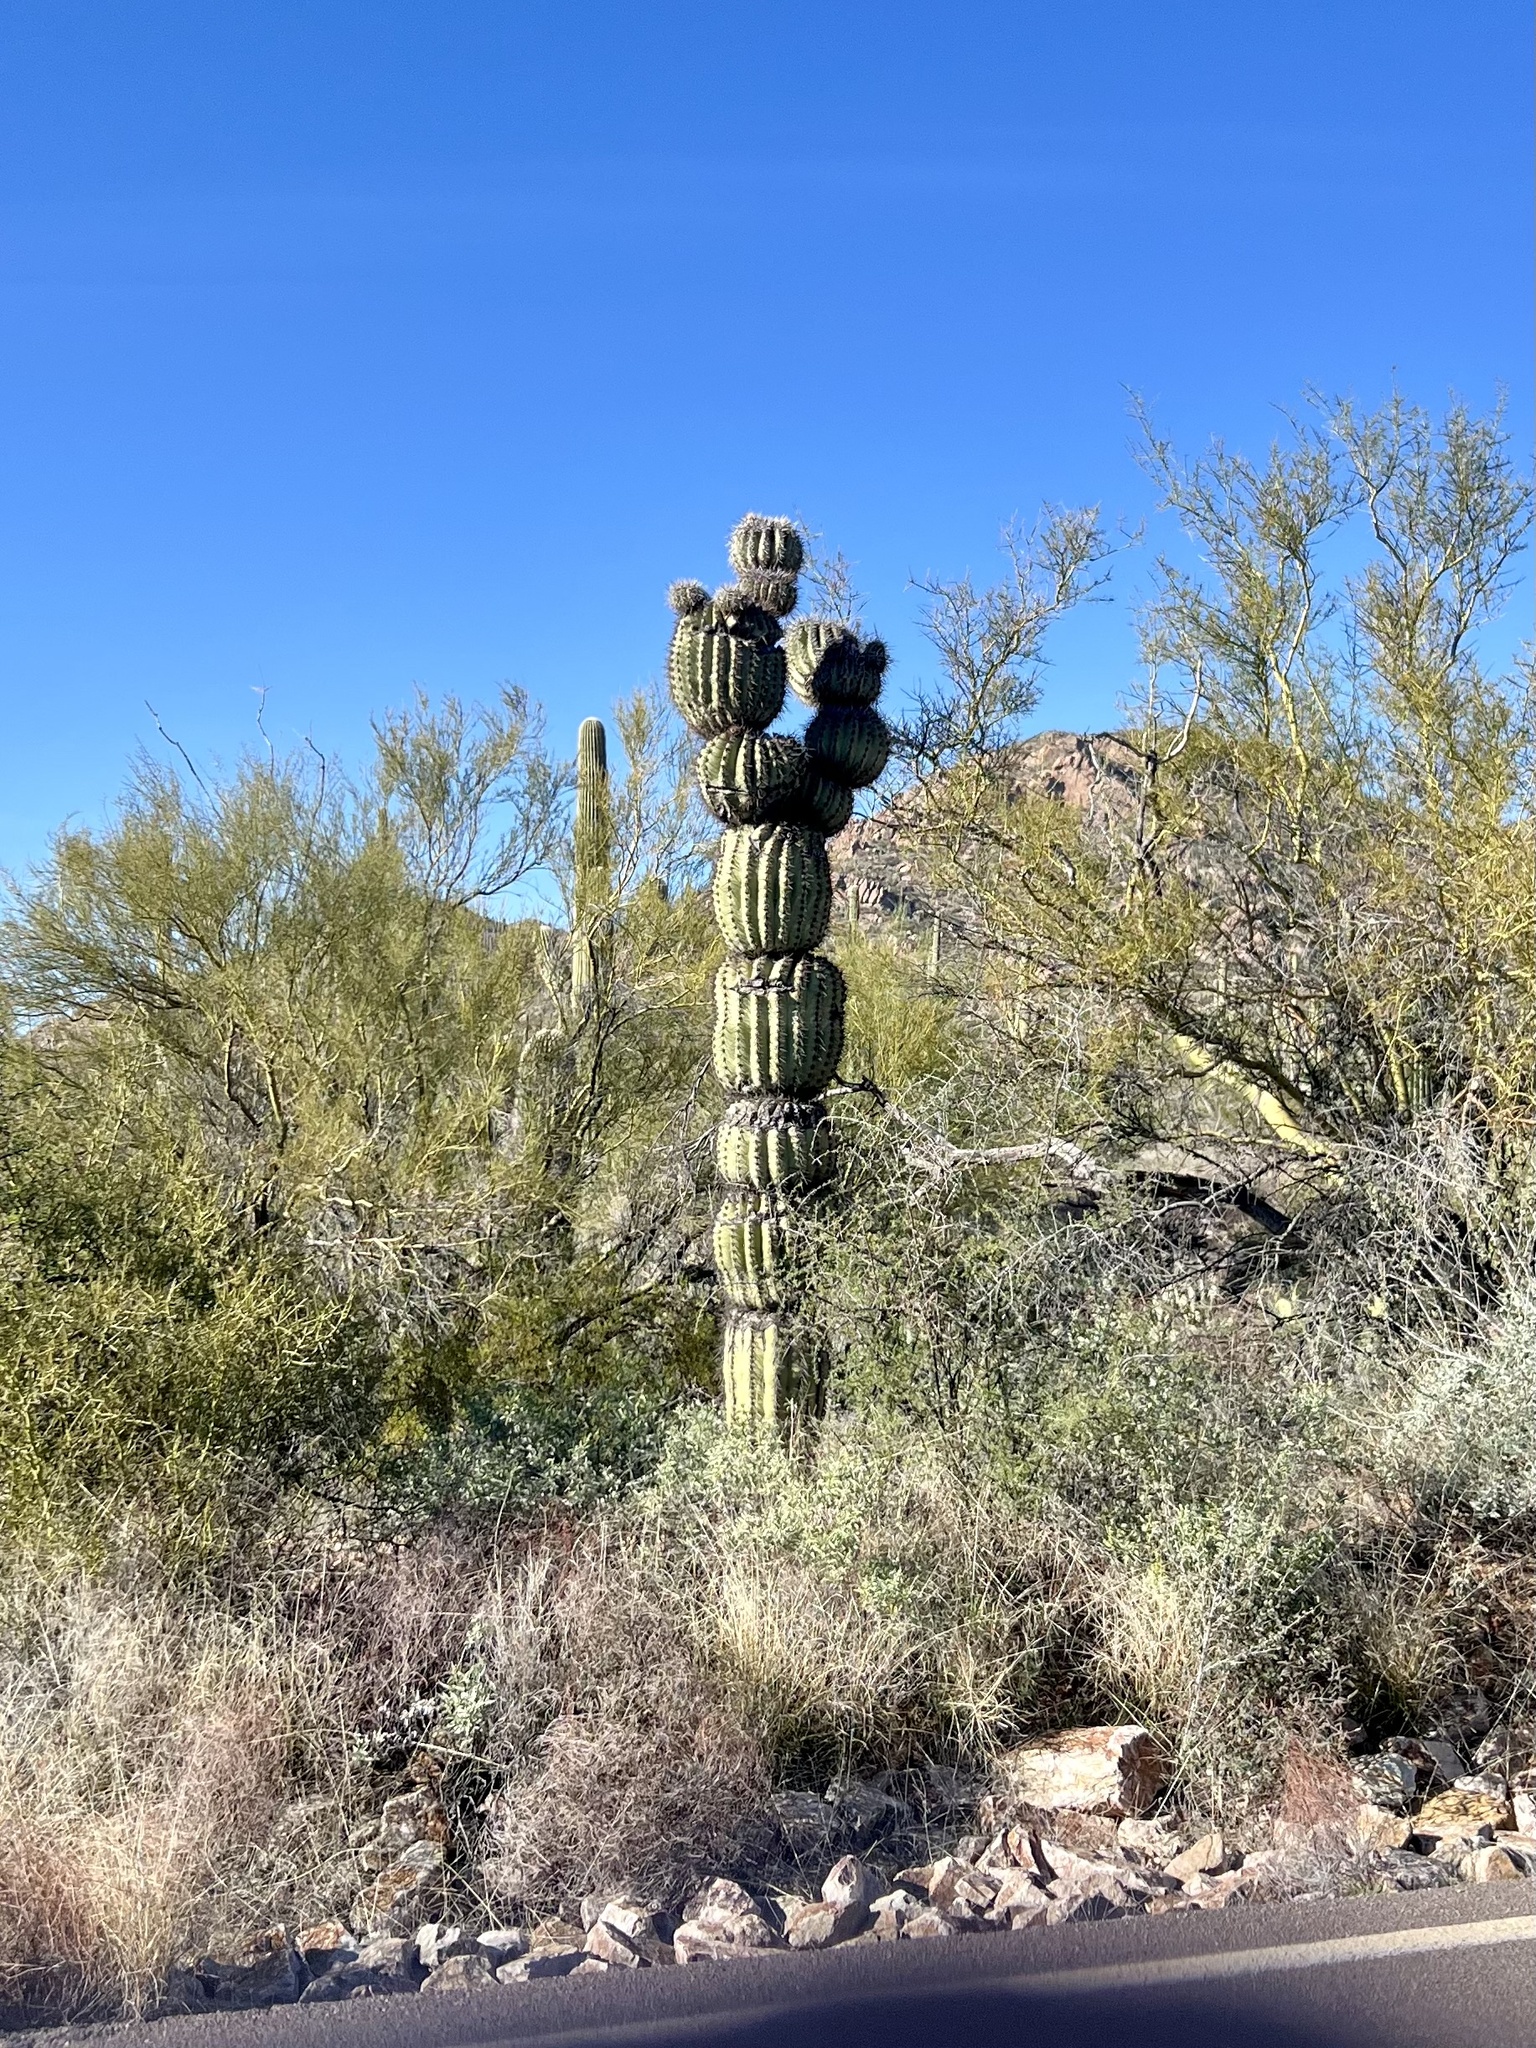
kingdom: Plantae
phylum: Tracheophyta
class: Magnoliopsida
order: Caryophyllales
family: Cactaceae
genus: Carnegiea
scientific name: Carnegiea gigantea
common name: Saguaro
